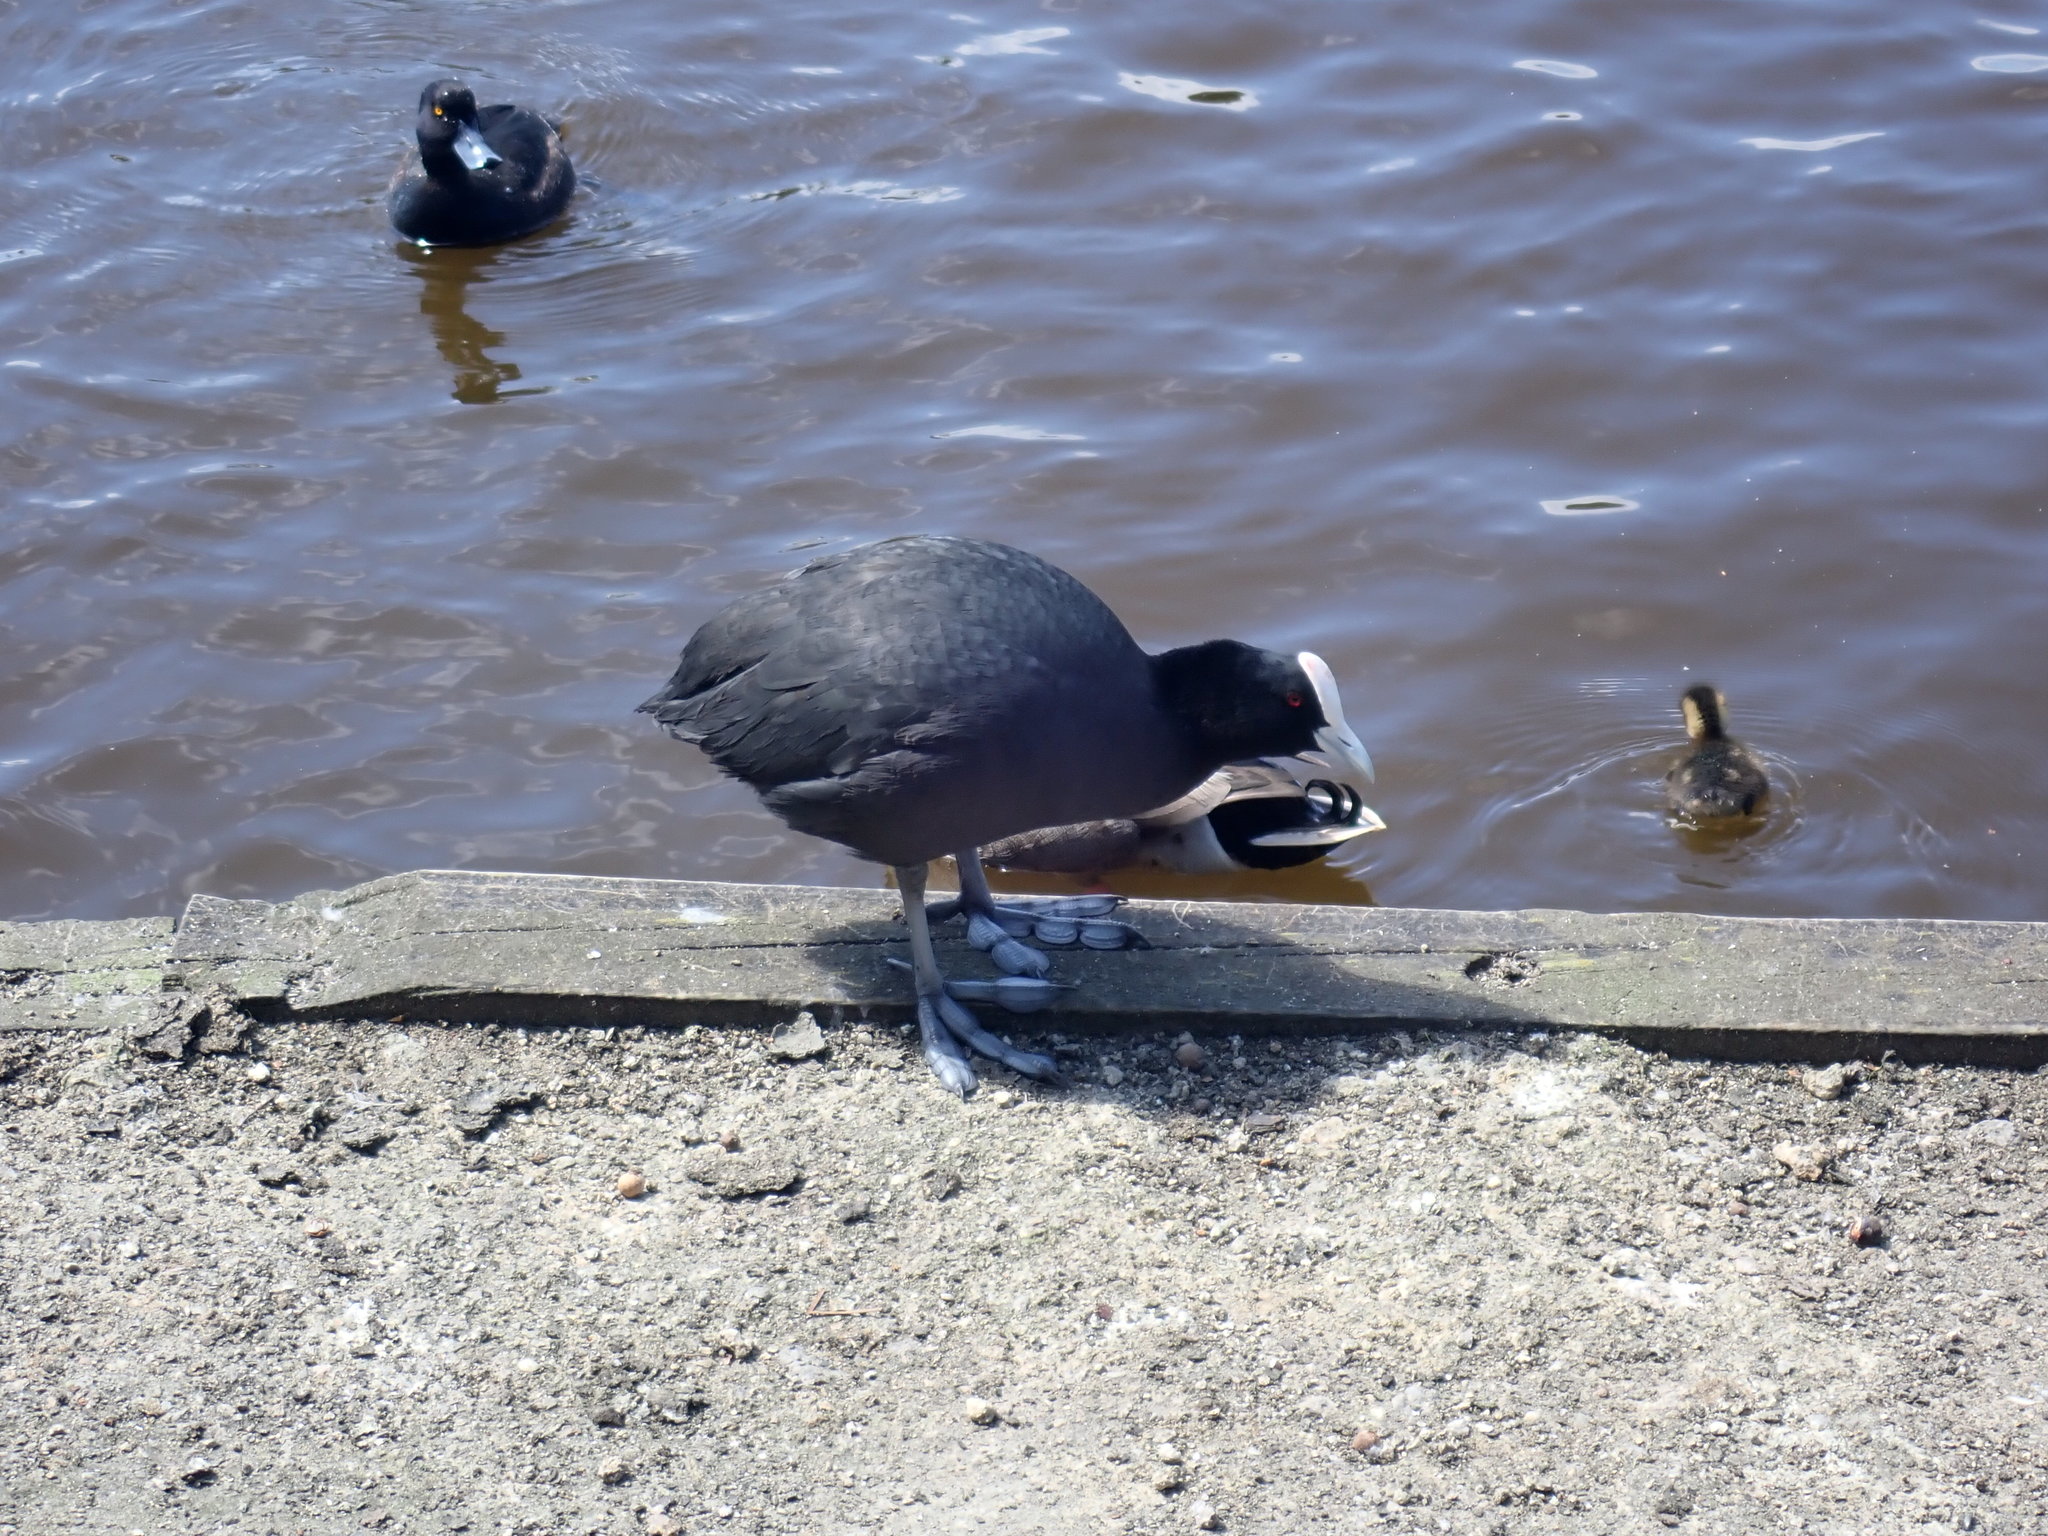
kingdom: Animalia
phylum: Chordata
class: Aves
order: Gruiformes
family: Rallidae
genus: Fulica
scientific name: Fulica atra
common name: Eurasian coot
